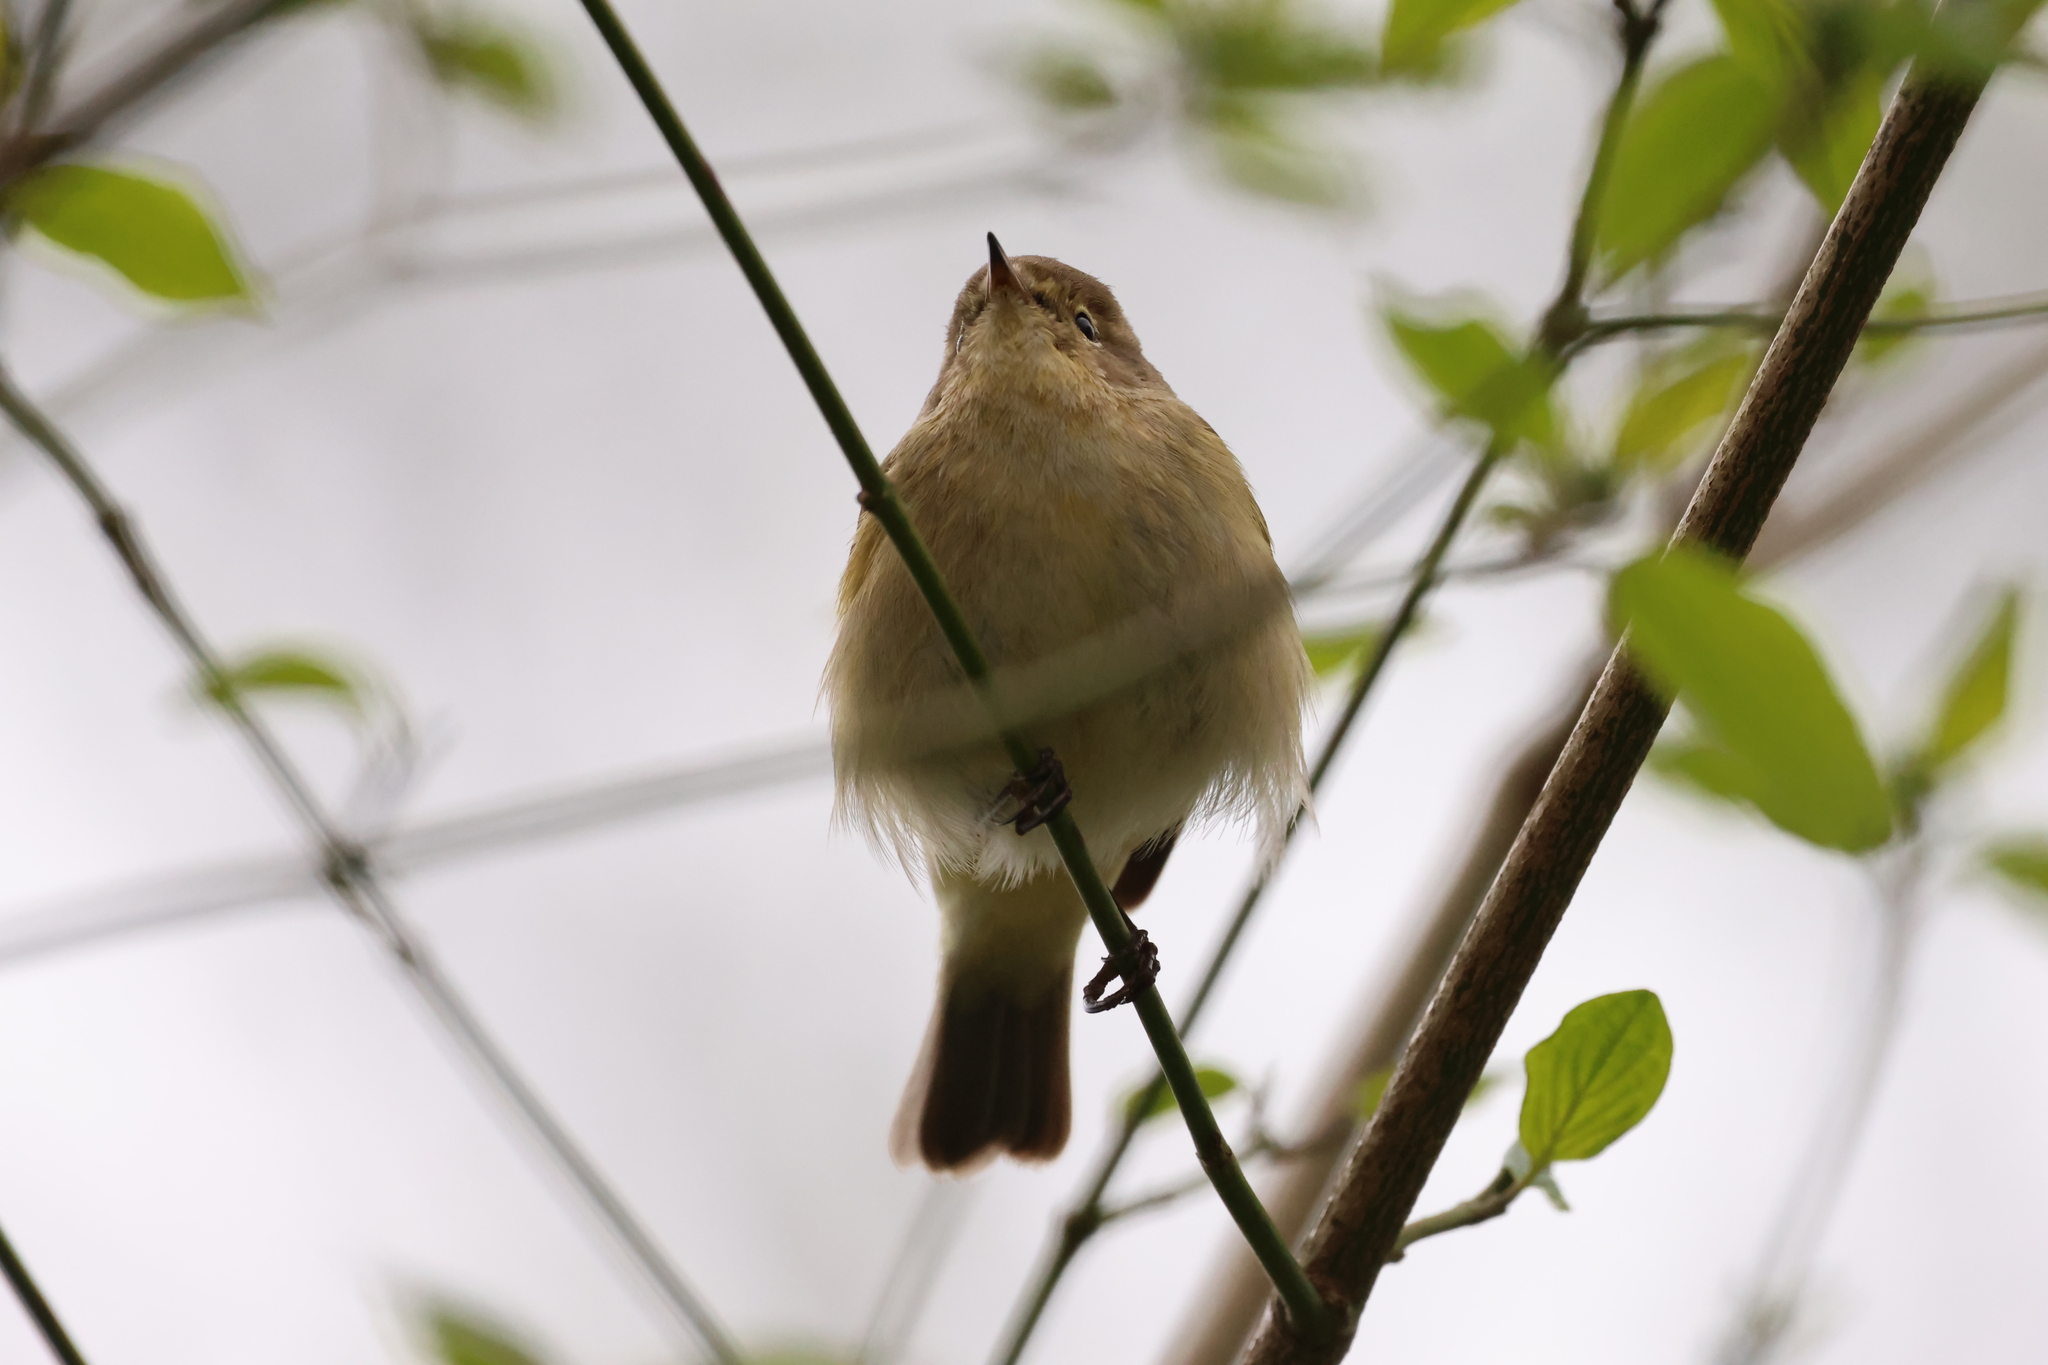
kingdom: Animalia
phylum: Chordata
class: Aves
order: Passeriformes
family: Phylloscopidae
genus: Phylloscopus
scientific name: Phylloscopus collybita
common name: Common chiffchaff
